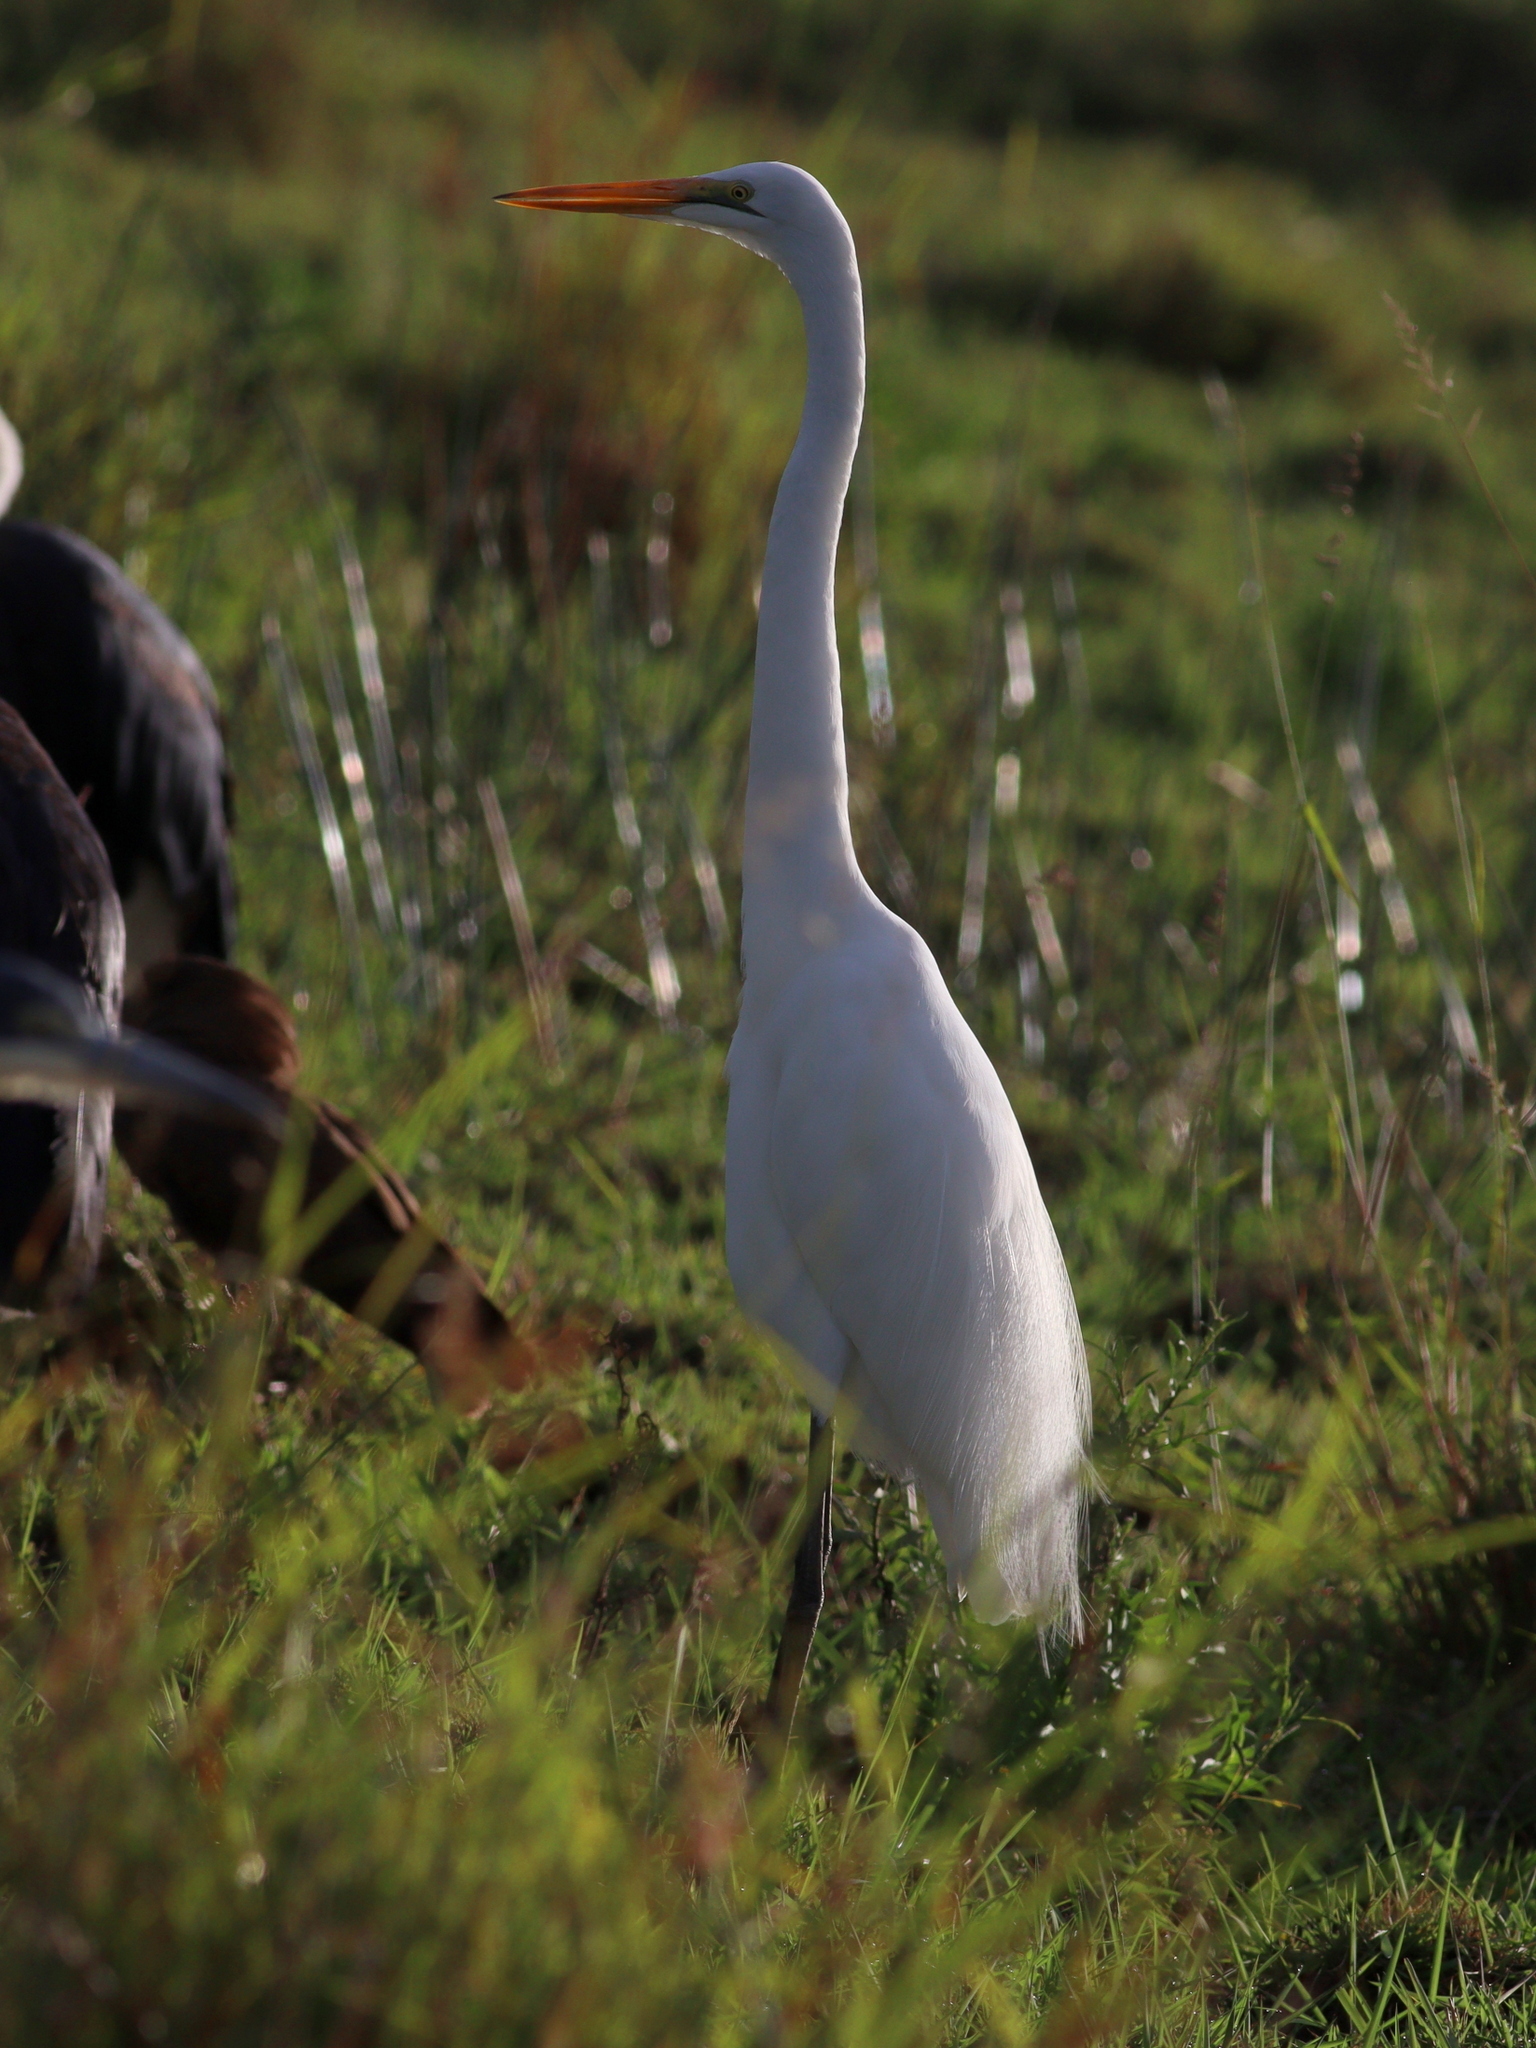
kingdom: Animalia
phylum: Chordata
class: Aves
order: Pelecaniformes
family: Ardeidae
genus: Ardea
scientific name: Ardea alba
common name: Great egret
